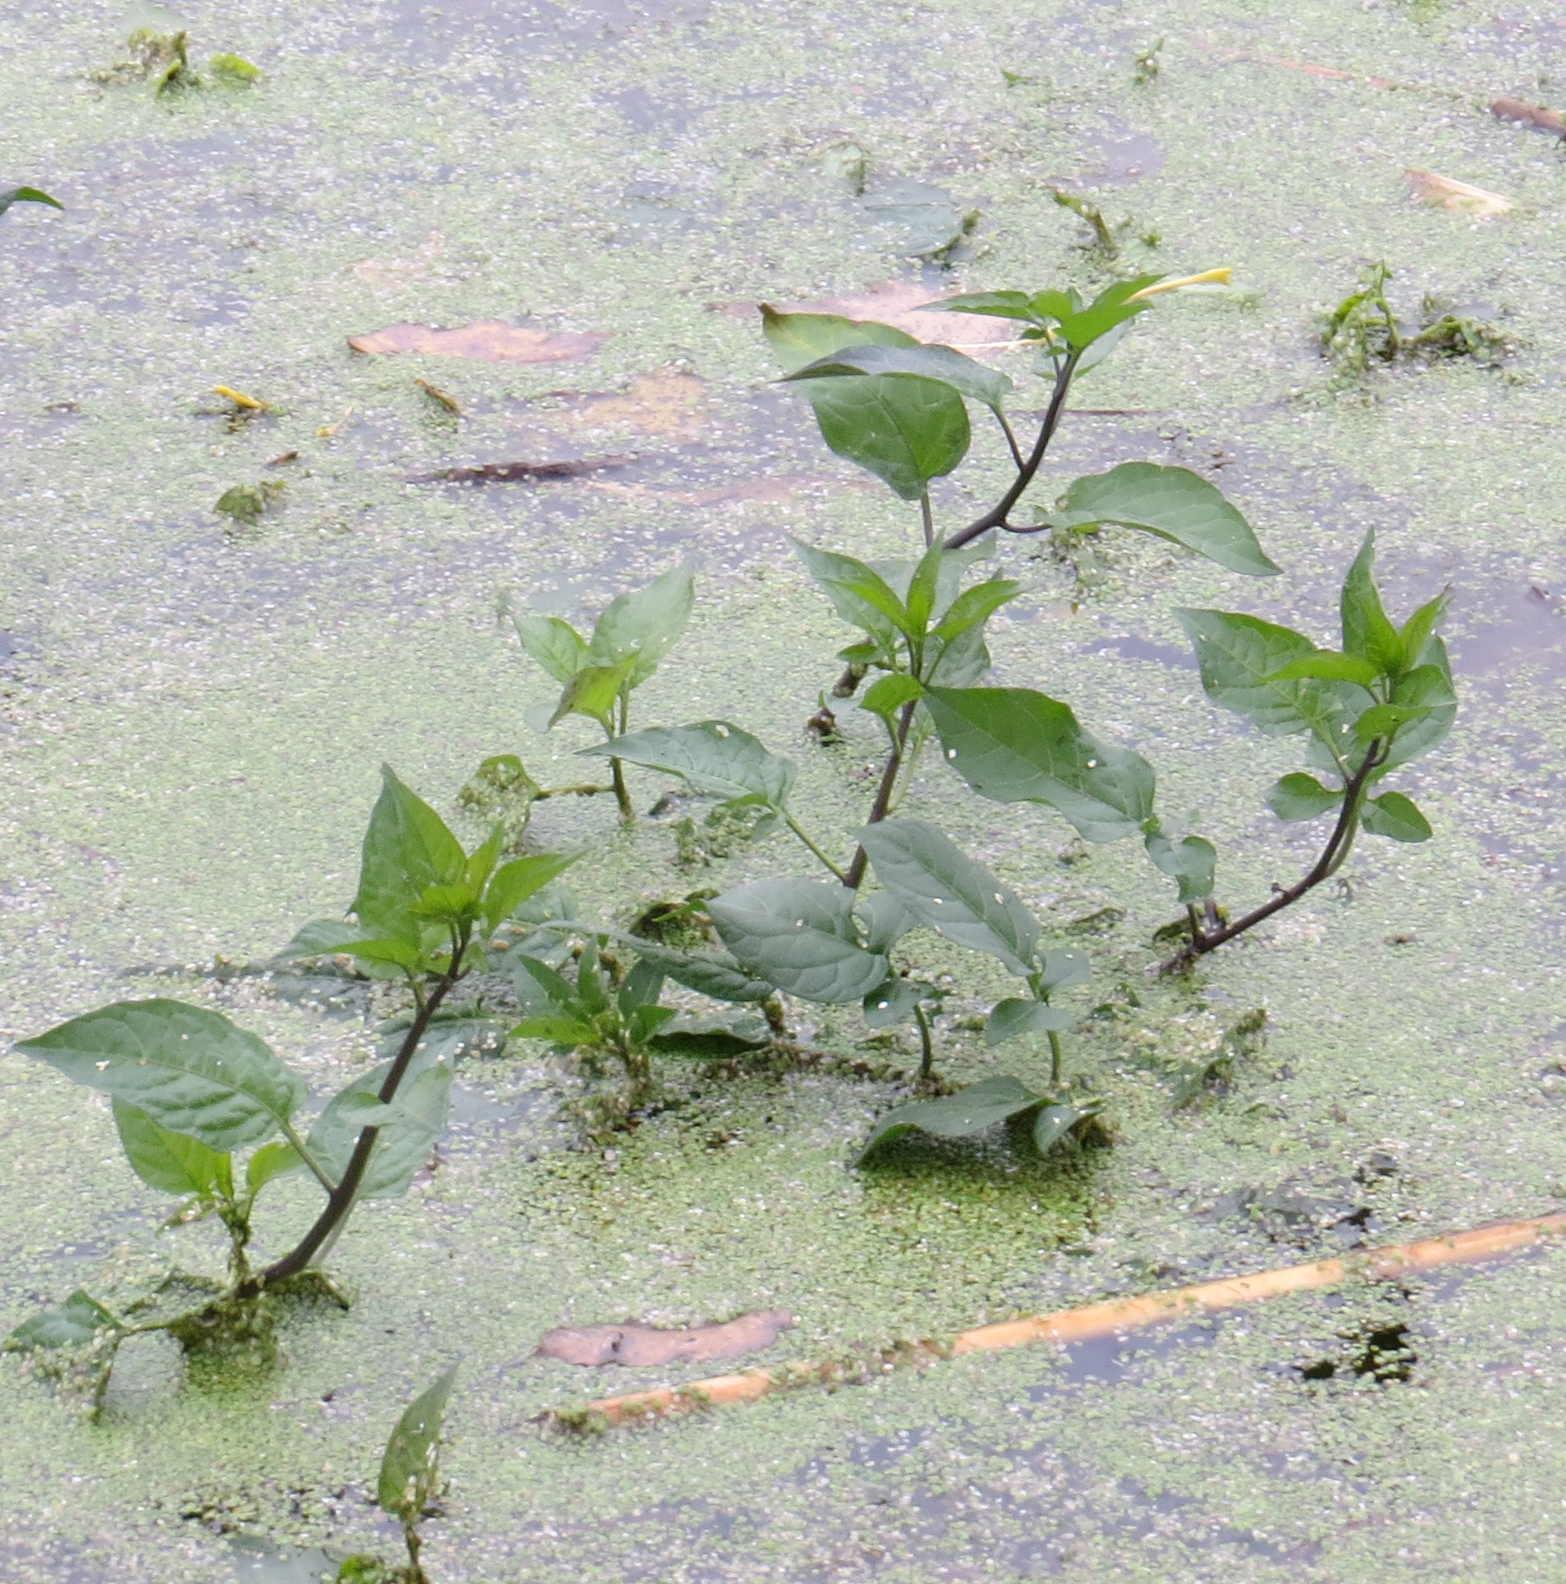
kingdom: Plantae
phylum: Tracheophyta
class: Magnoliopsida
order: Solanales
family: Solanaceae
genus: Solanum
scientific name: Solanum dulcamara
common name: Climbing nightshade
